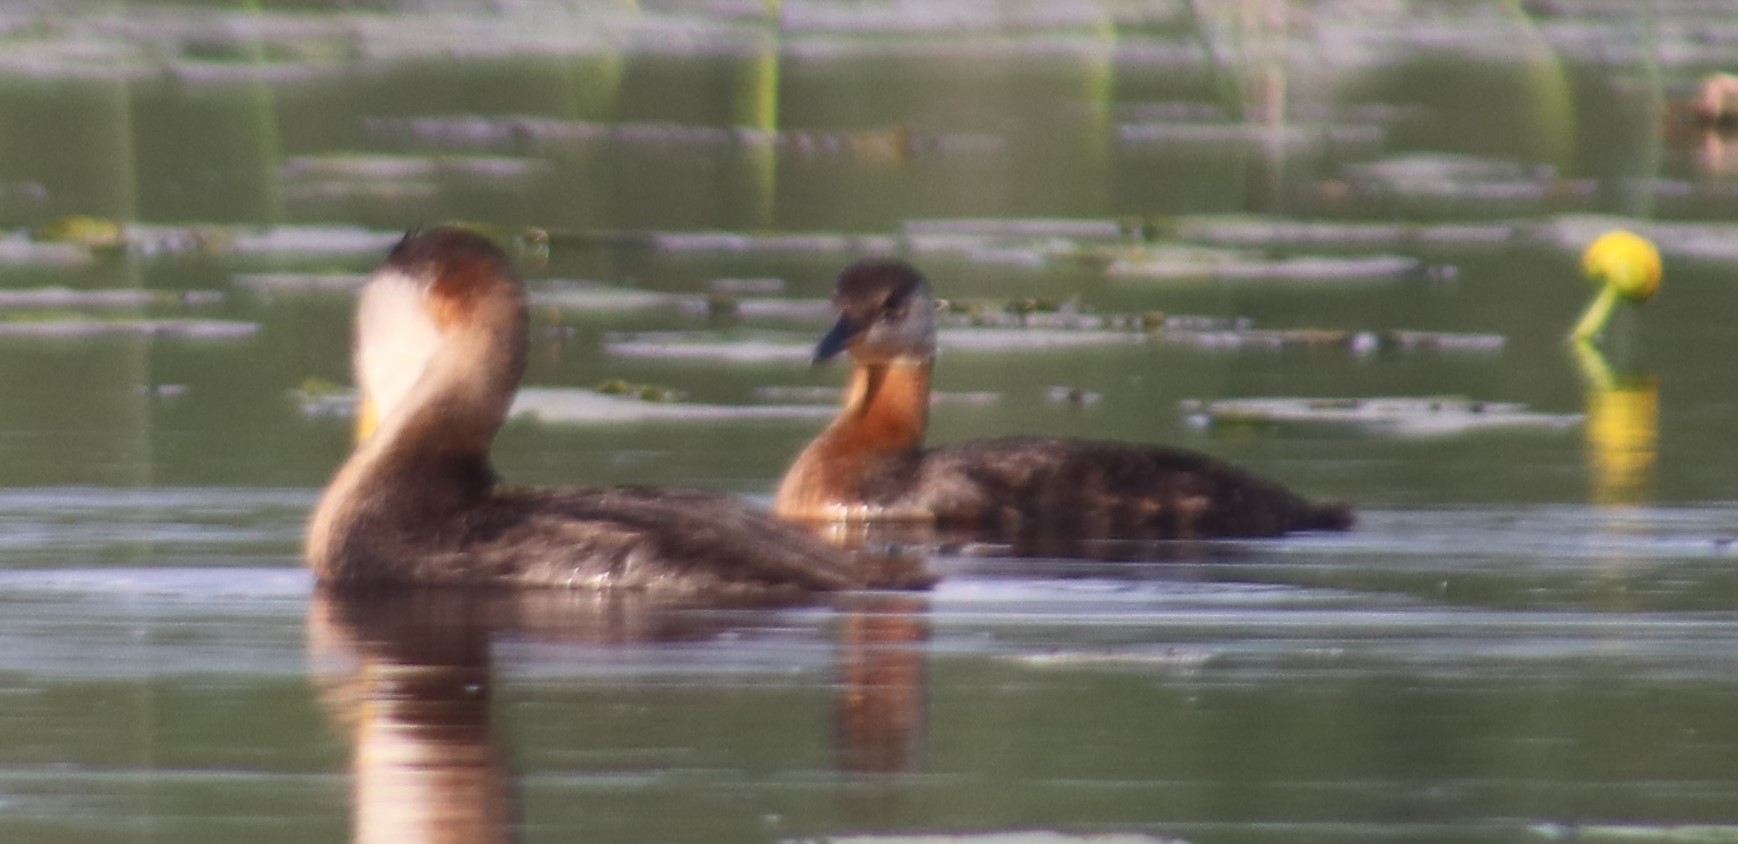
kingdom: Animalia
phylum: Chordata
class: Aves
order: Podicipediformes
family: Podicipedidae
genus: Podiceps
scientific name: Podiceps grisegena
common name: Red-necked grebe
